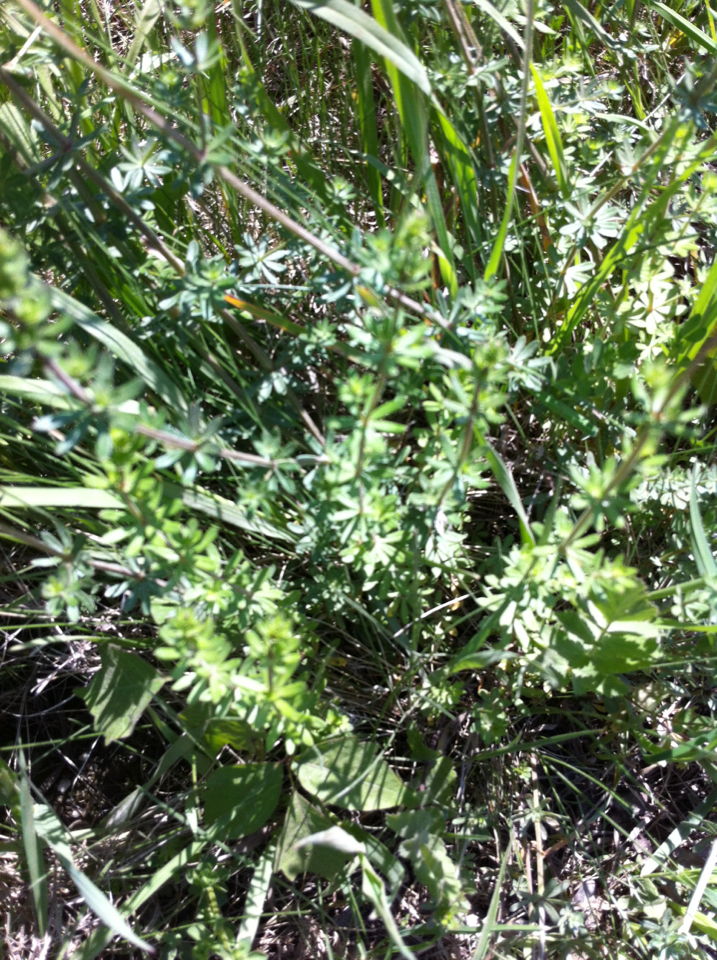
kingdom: Plantae
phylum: Tracheophyta
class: Magnoliopsida
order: Gentianales
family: Rubiaceae
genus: Galium
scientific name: Galium mollugo
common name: Hedge bedstraw
